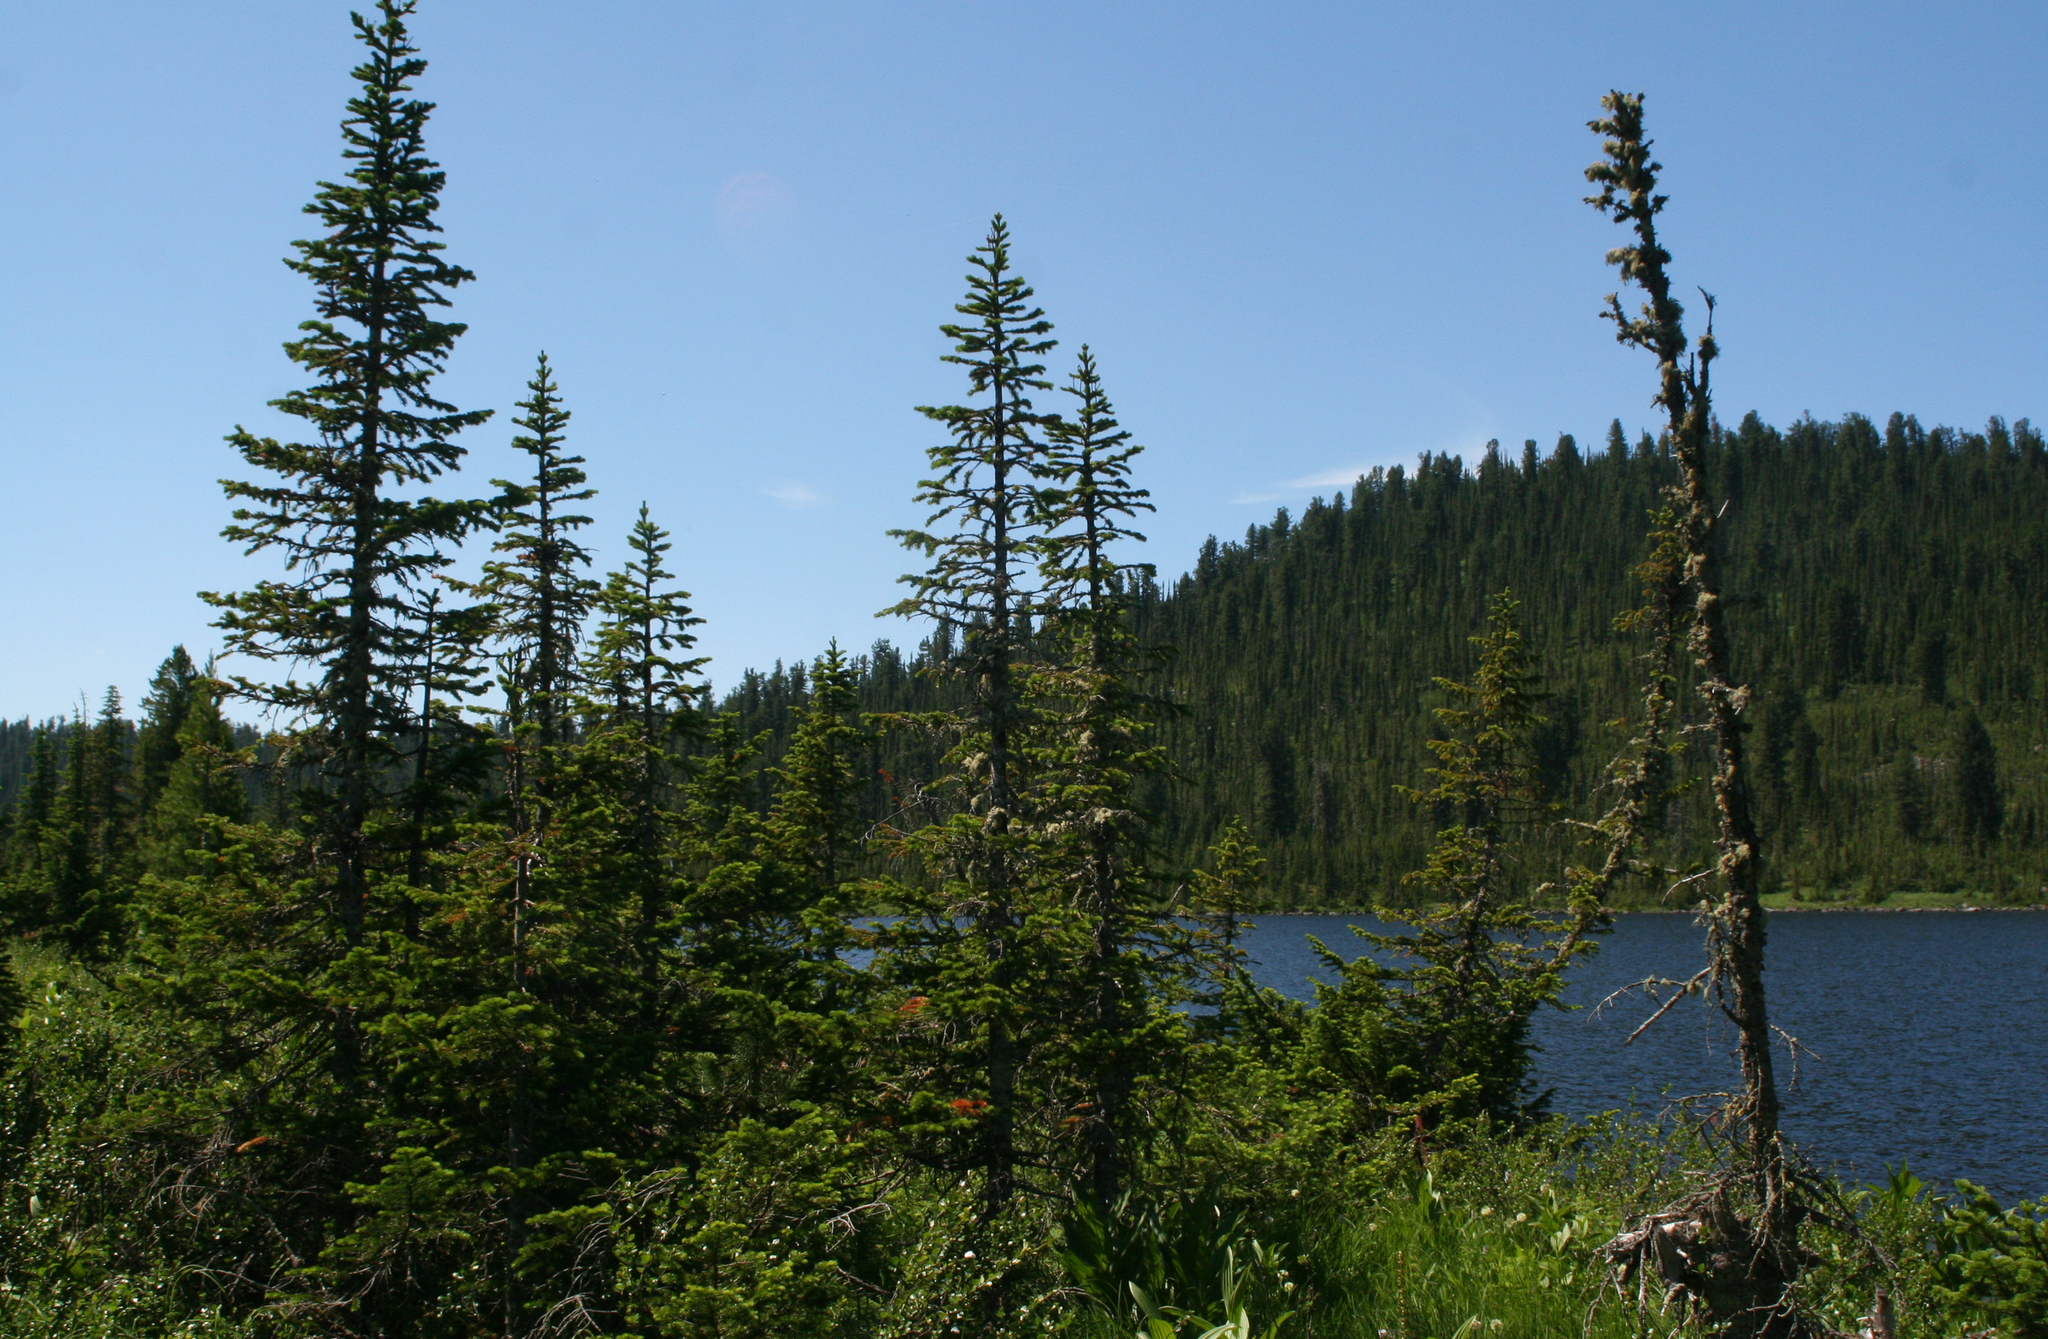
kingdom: Plantae
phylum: Tracheophyta
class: Pinopsida
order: Pinales
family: Pinaceae
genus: Abies
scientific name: Abies sibirica
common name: Siberian fir
